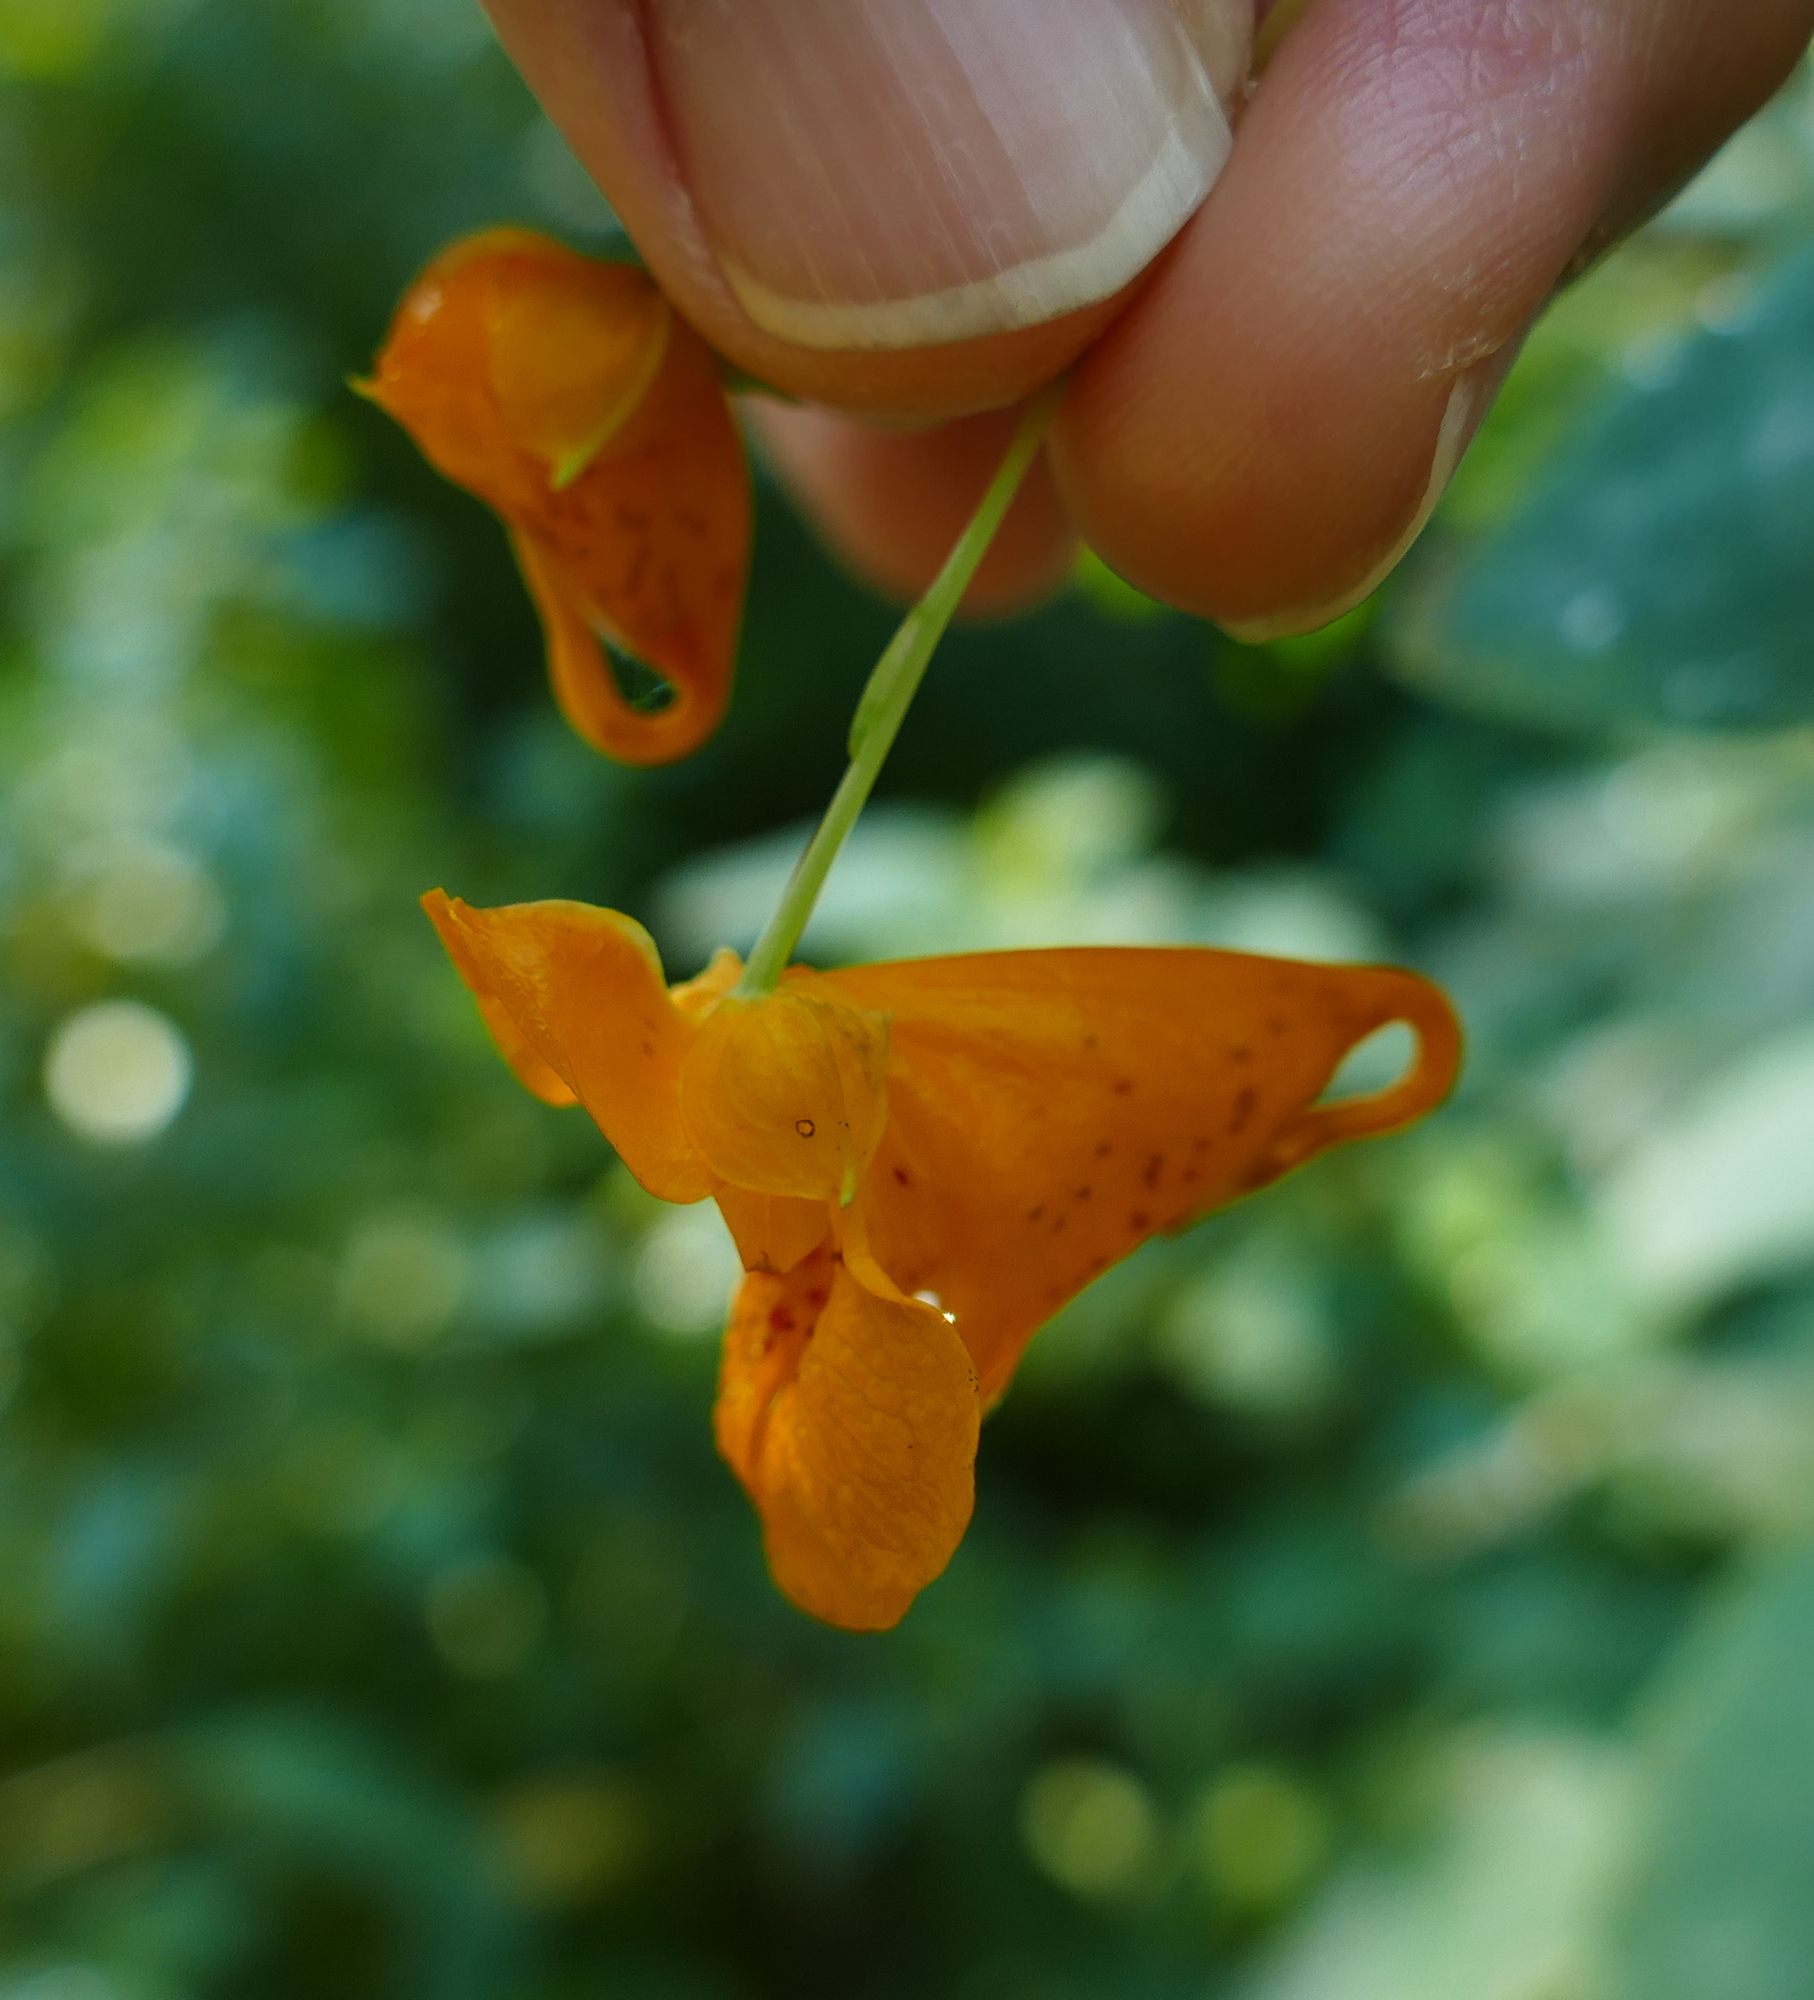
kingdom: Plantae
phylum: Tracheophyta
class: Magnoliopsida
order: Ericales
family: Balsaminaceae
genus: Impatiens
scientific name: Impatiens capensis
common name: Orange balsam
